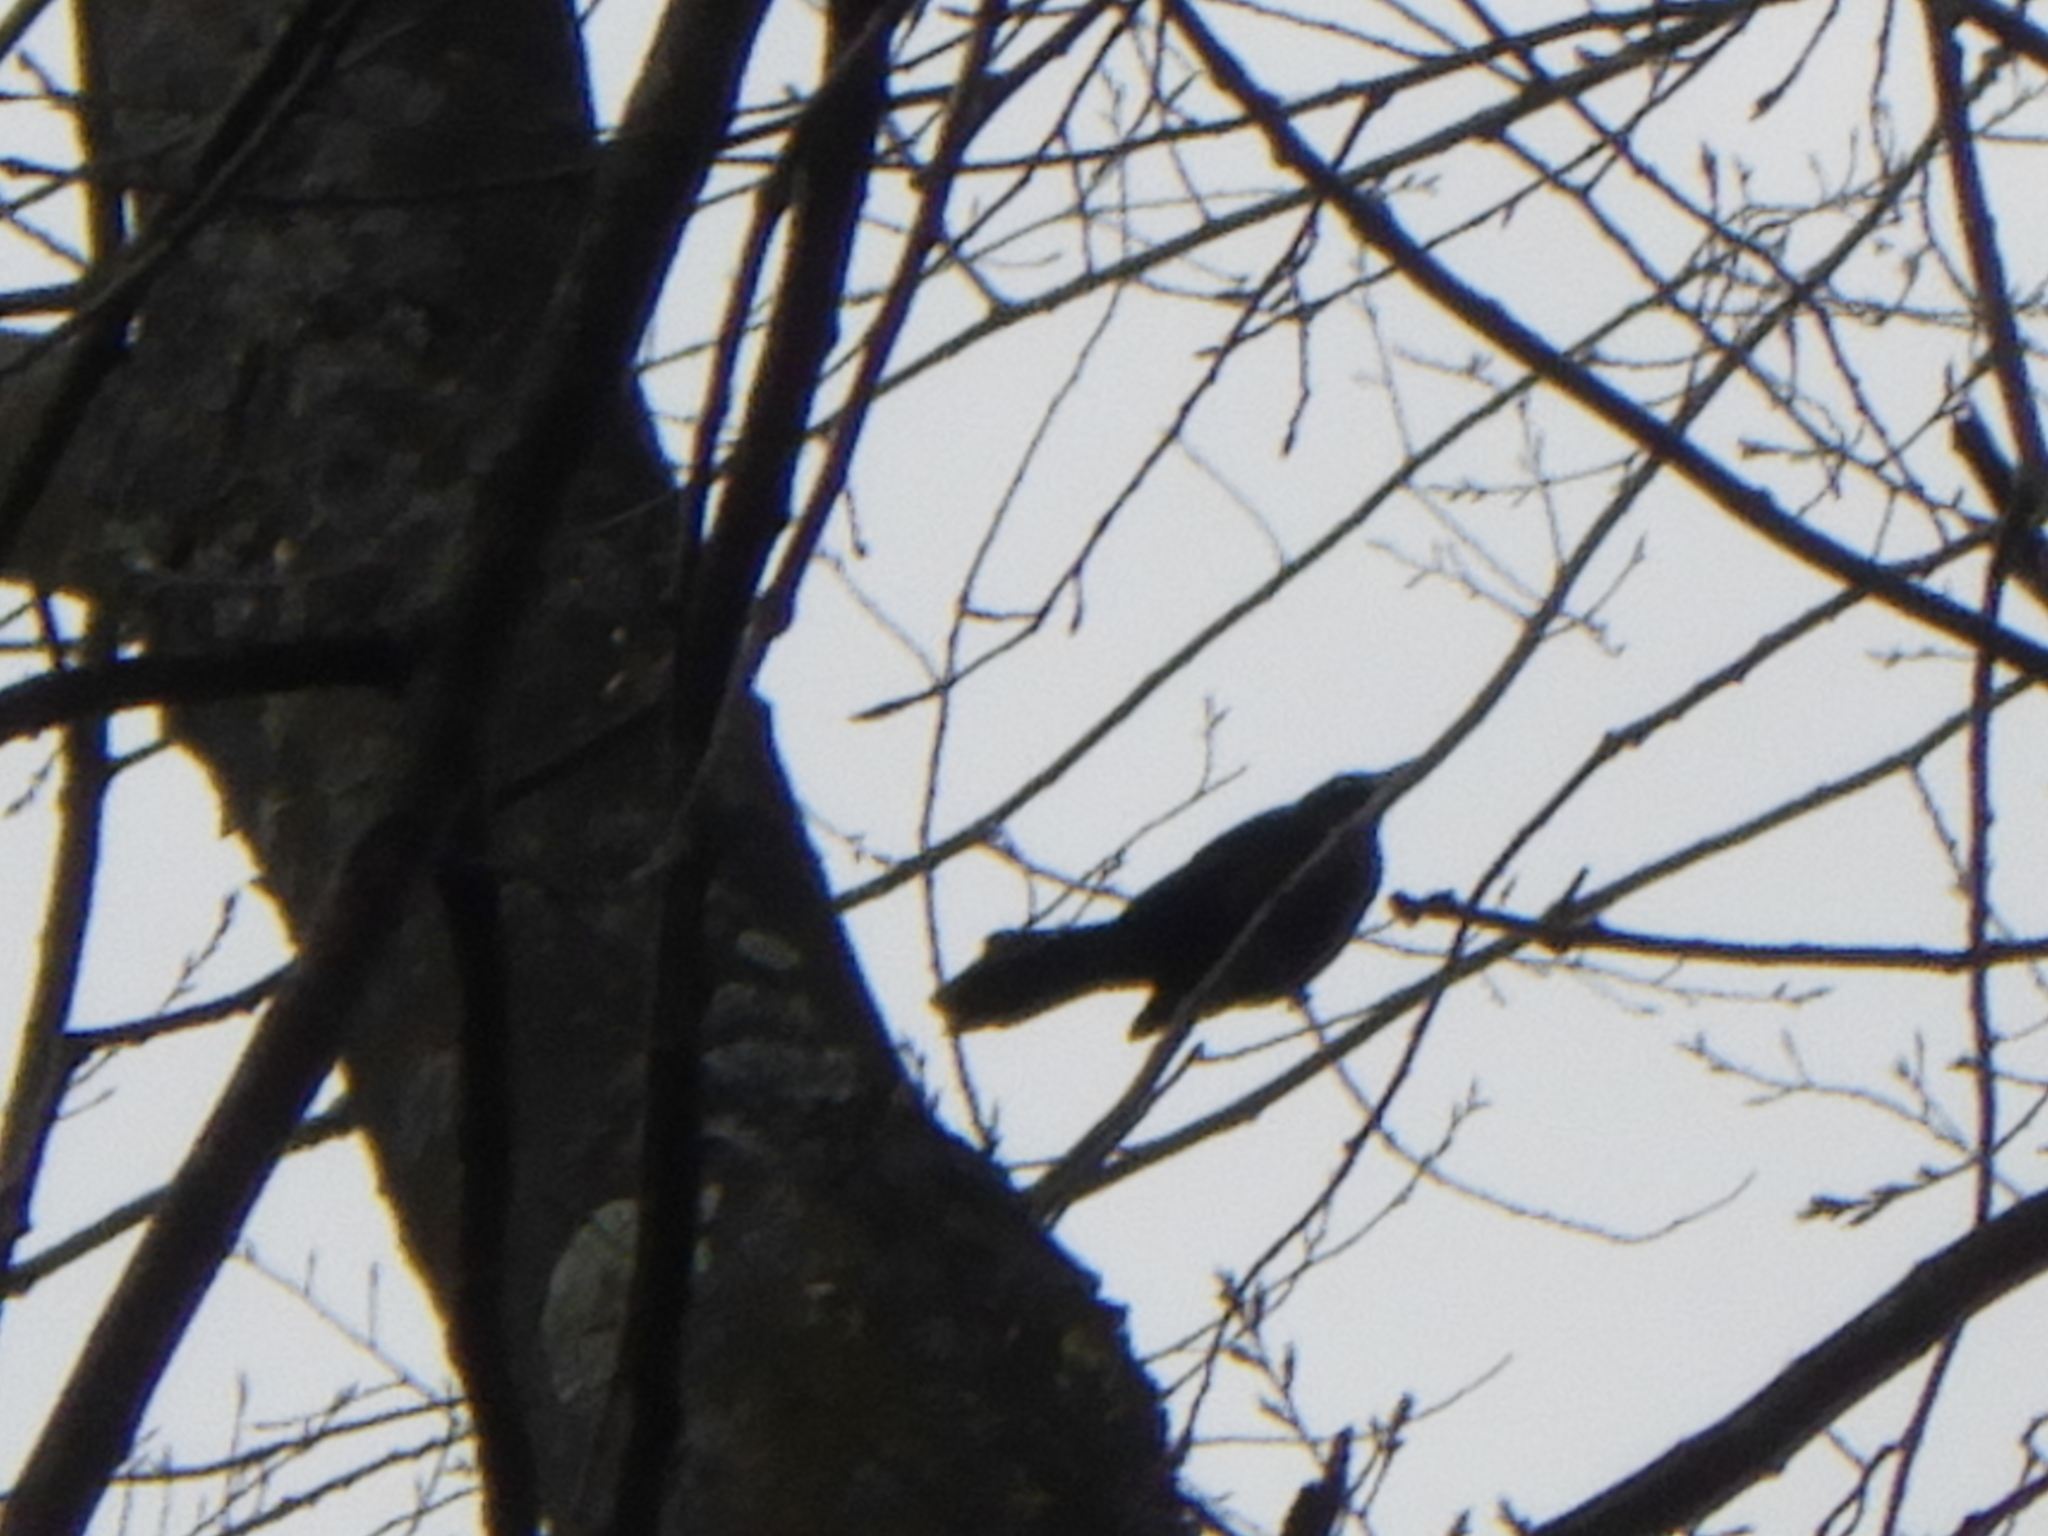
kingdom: Animalia
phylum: Chordata
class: Aves
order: Passeriformes
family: Icteridae
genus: Quiscalus
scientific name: Quiscalus quiscula
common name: Common grackle
